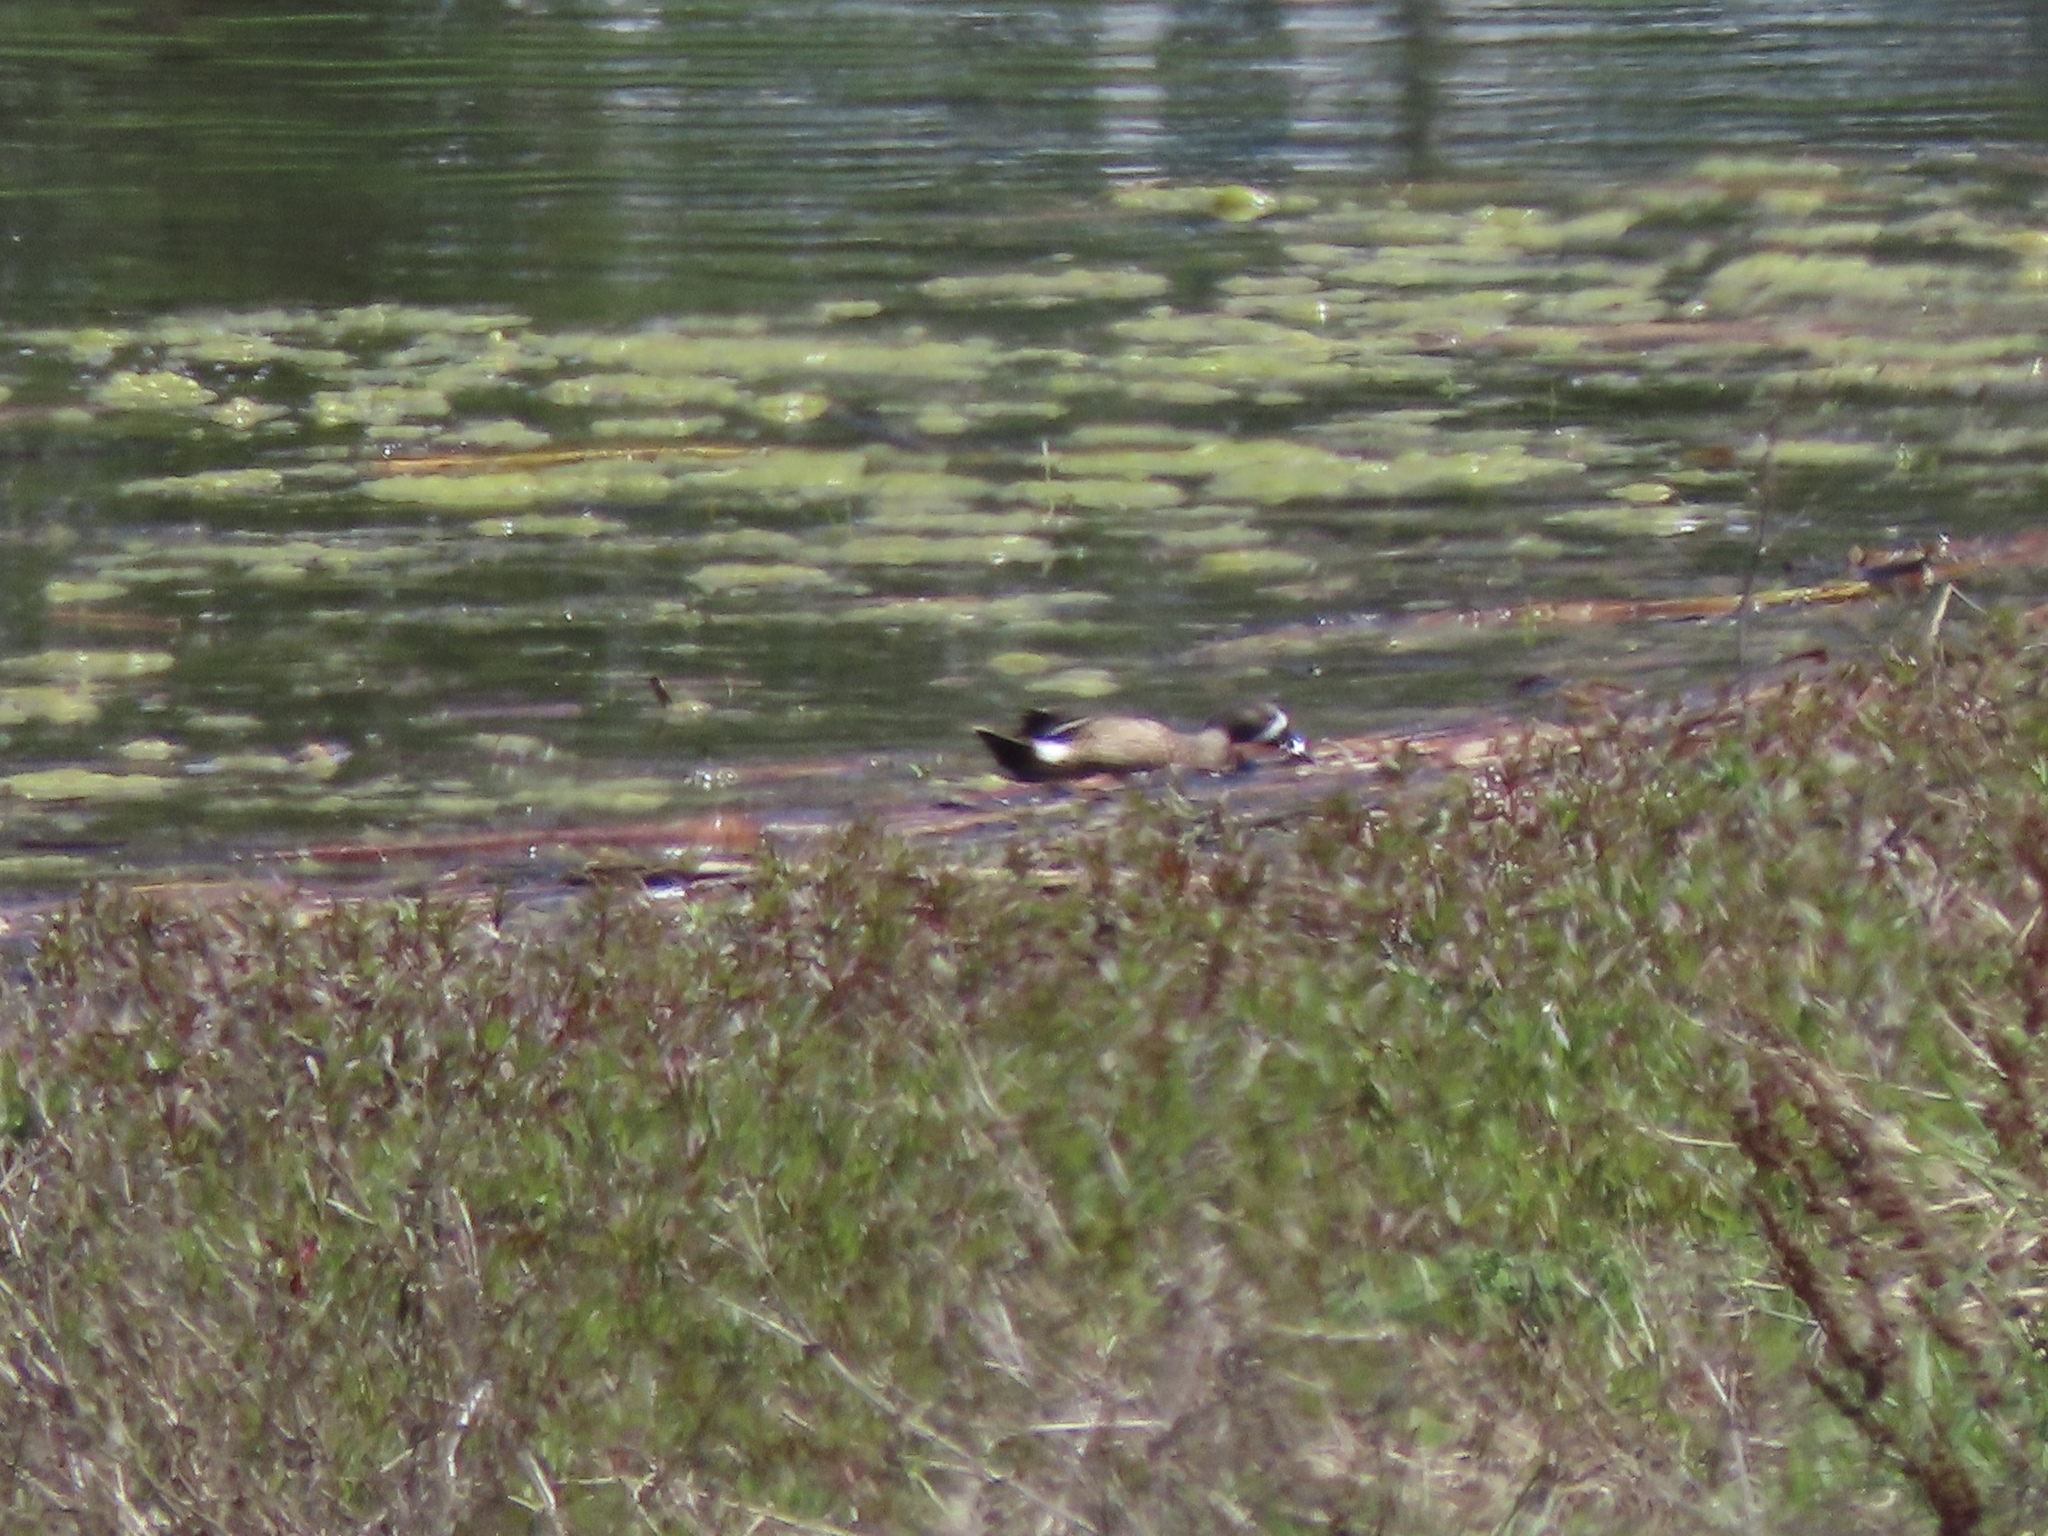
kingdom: Animalia
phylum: Chordata
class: Aves
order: Anseriformes
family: Anatidae
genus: Spatula
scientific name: Spatula discors
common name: Blue-winged teal
